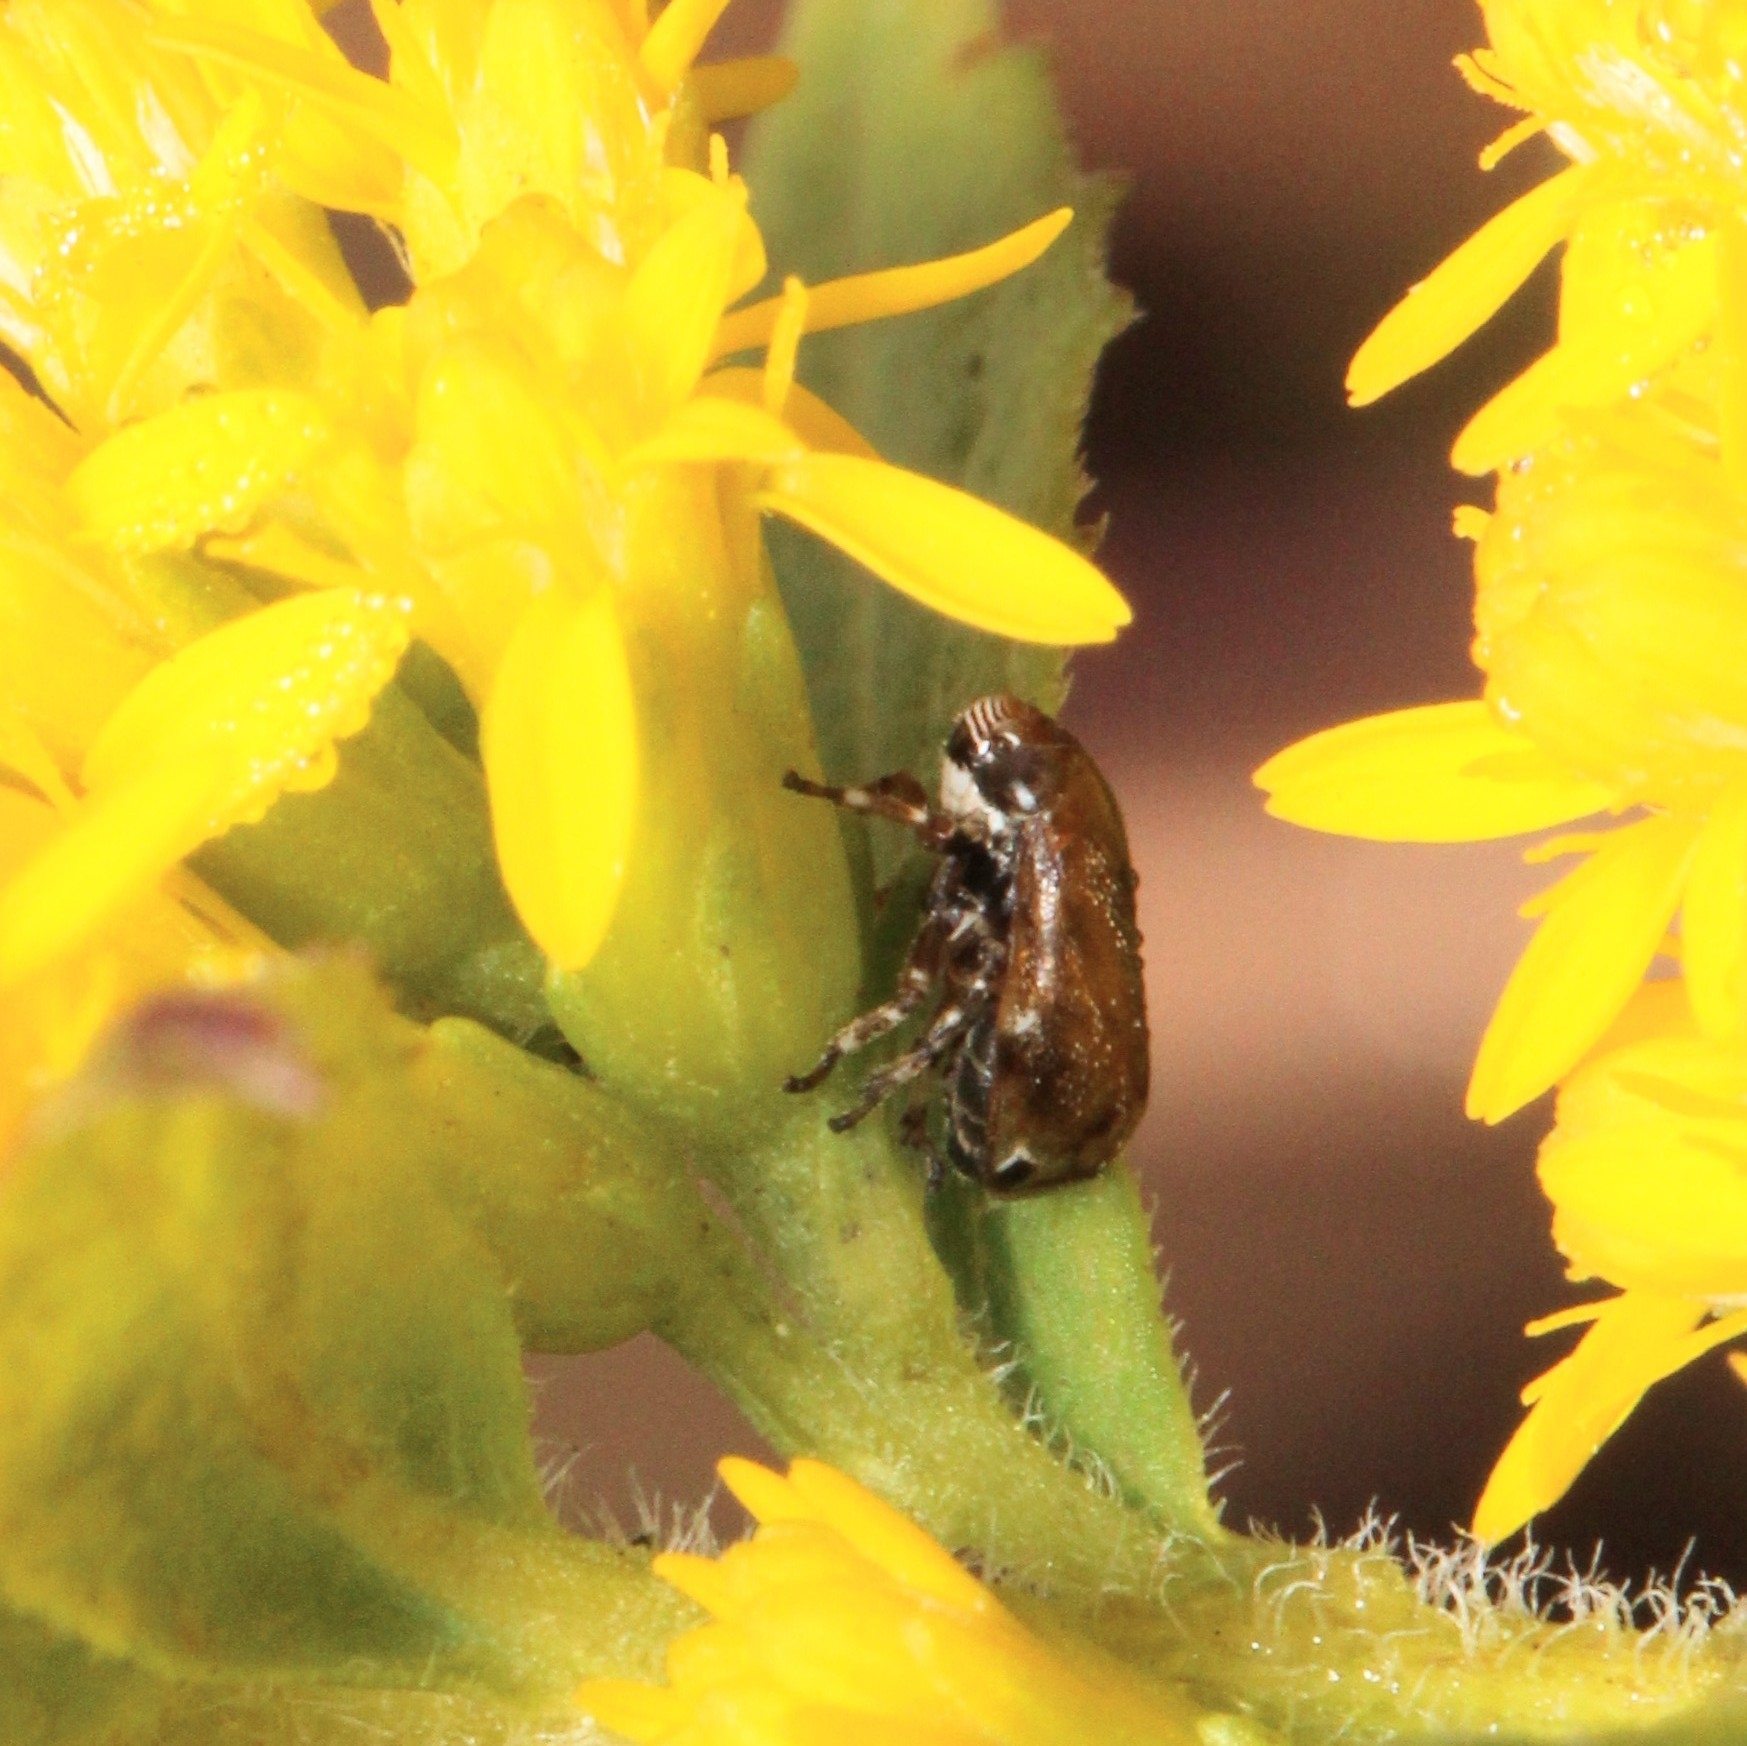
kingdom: Animalia
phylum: Arthropoda
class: Insecta
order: Hemiptera
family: Clastopteridae
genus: Clastoptera
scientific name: Clastoptera xanthocephala
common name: Sunflower spittlebug
